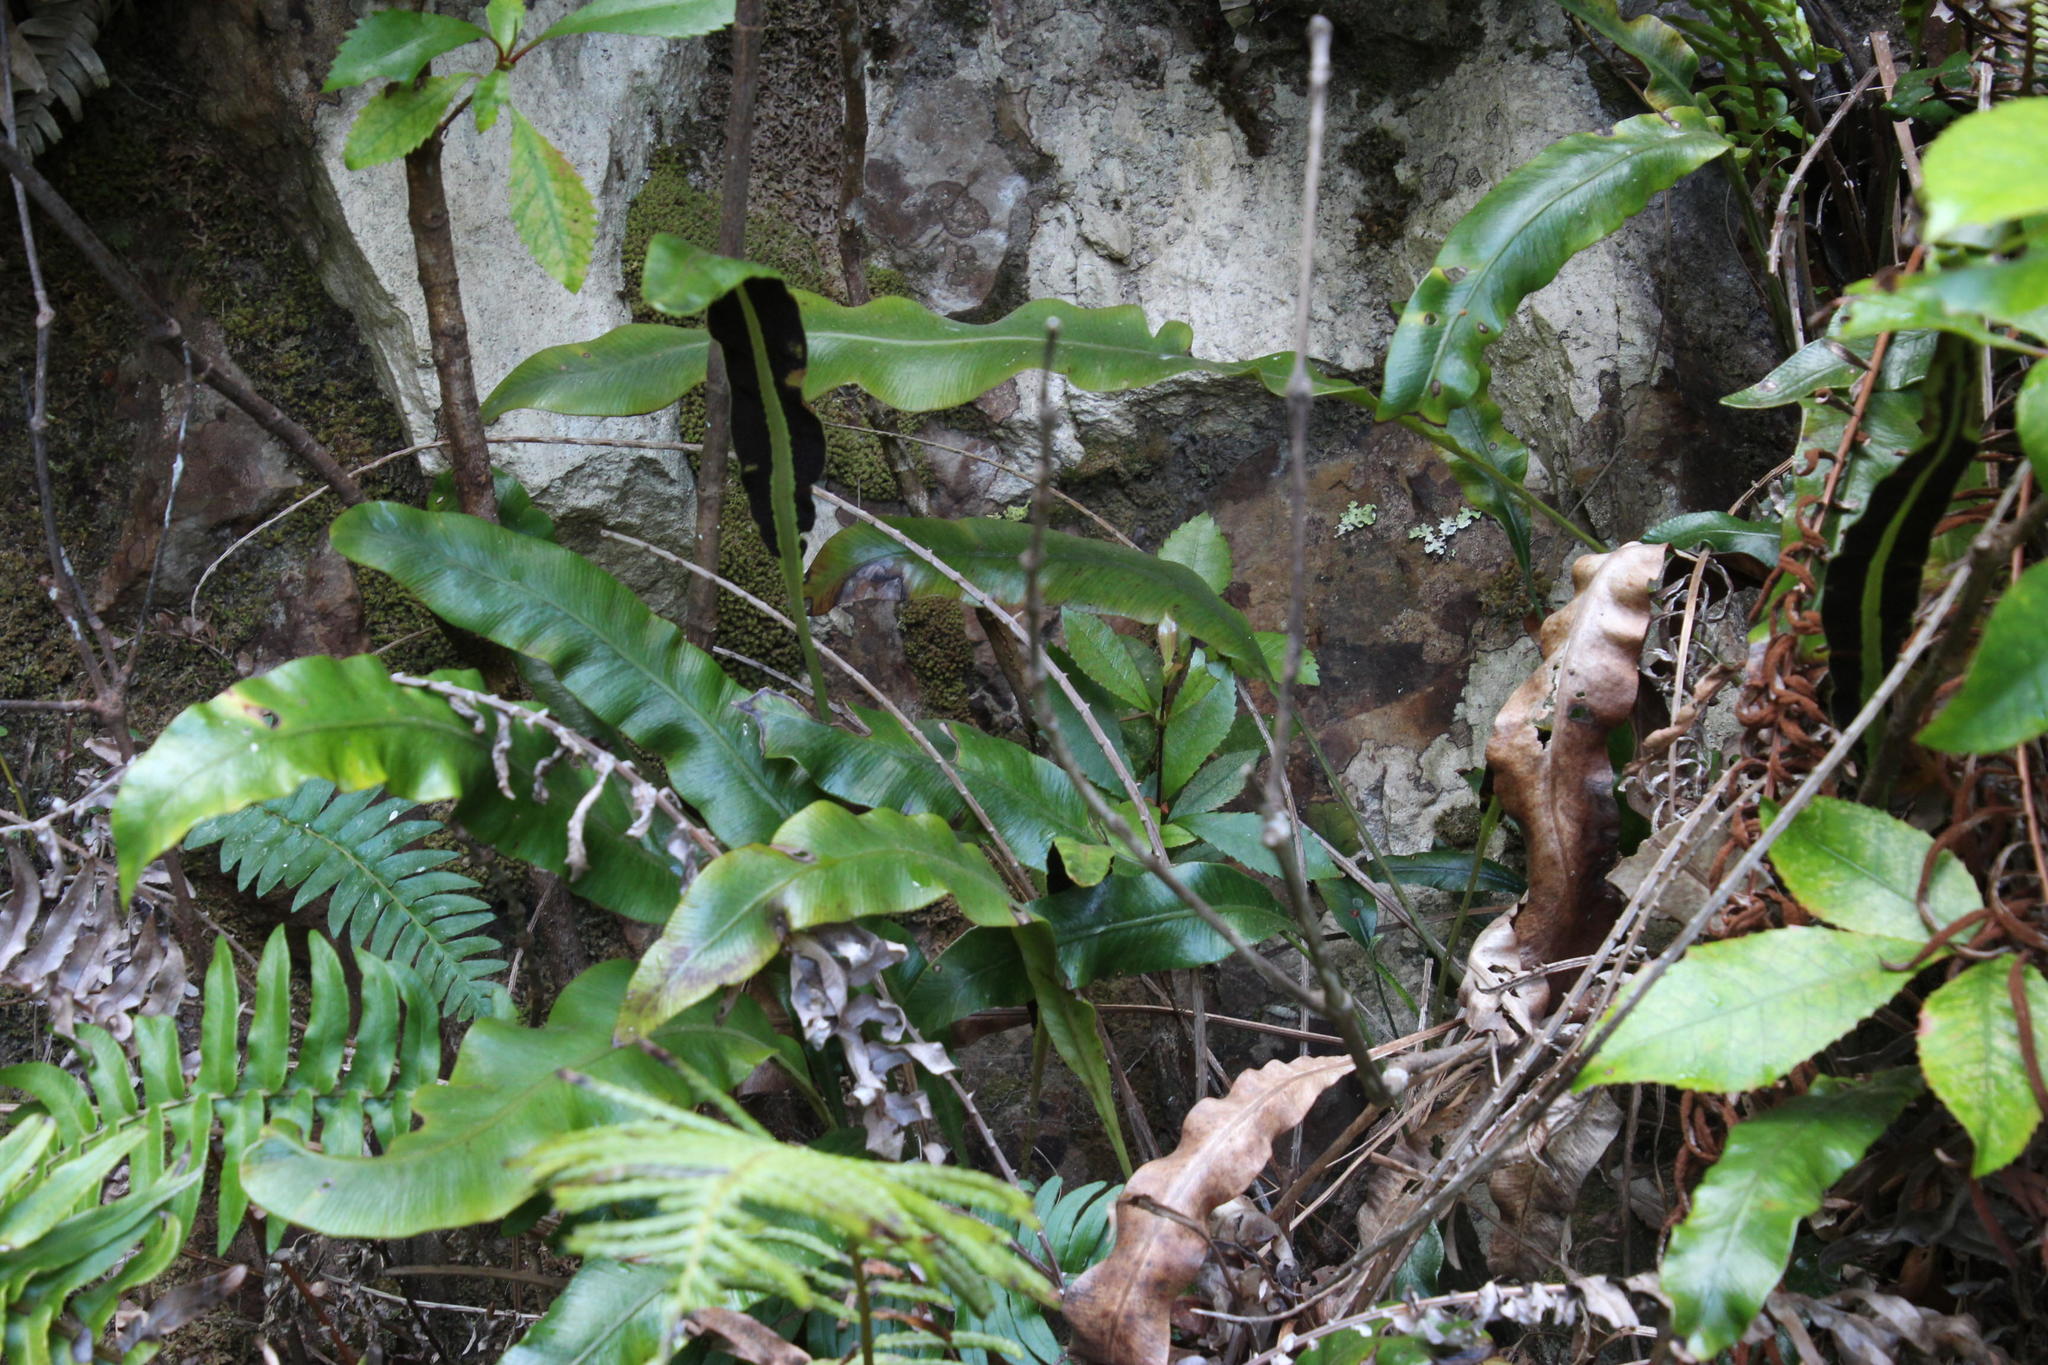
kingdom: Plantae
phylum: Tracheophyta
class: Polypodiopsida
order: Polypodiales
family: Dryopteridaceae
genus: Elaphoglossum
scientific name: Elaphoglossum angustatum
